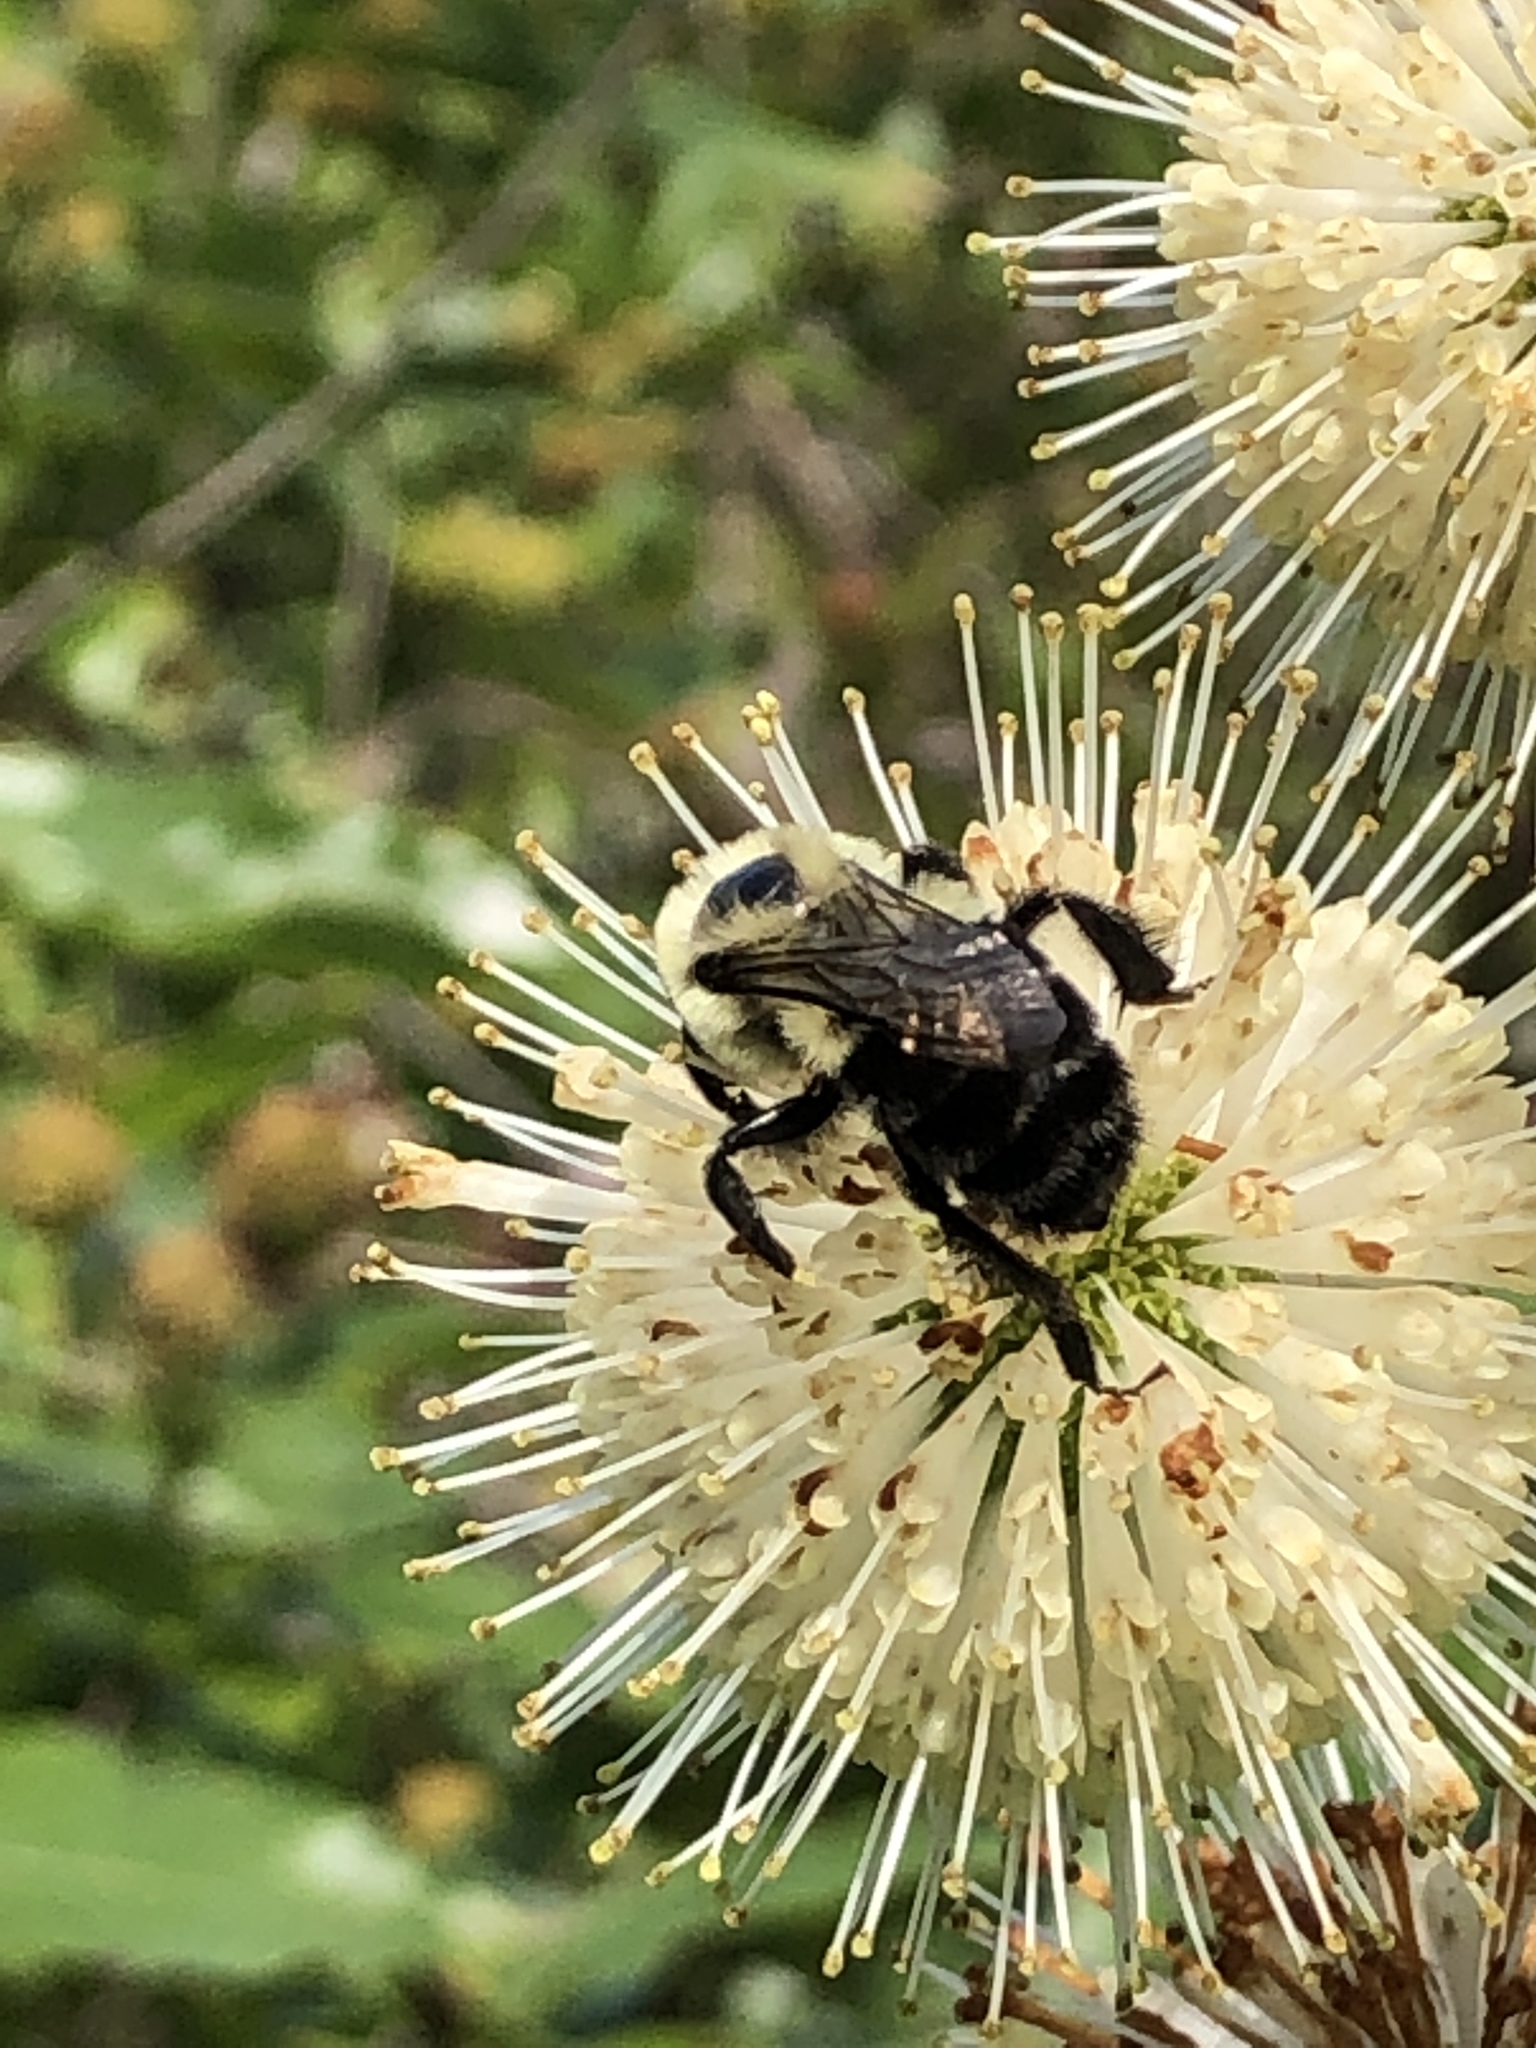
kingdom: Animalia
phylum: Arthropoda
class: Insecta
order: Hymenoptera
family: Apidae
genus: Bombus
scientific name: Bombus impatiens
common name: Common eastern bumble bee
